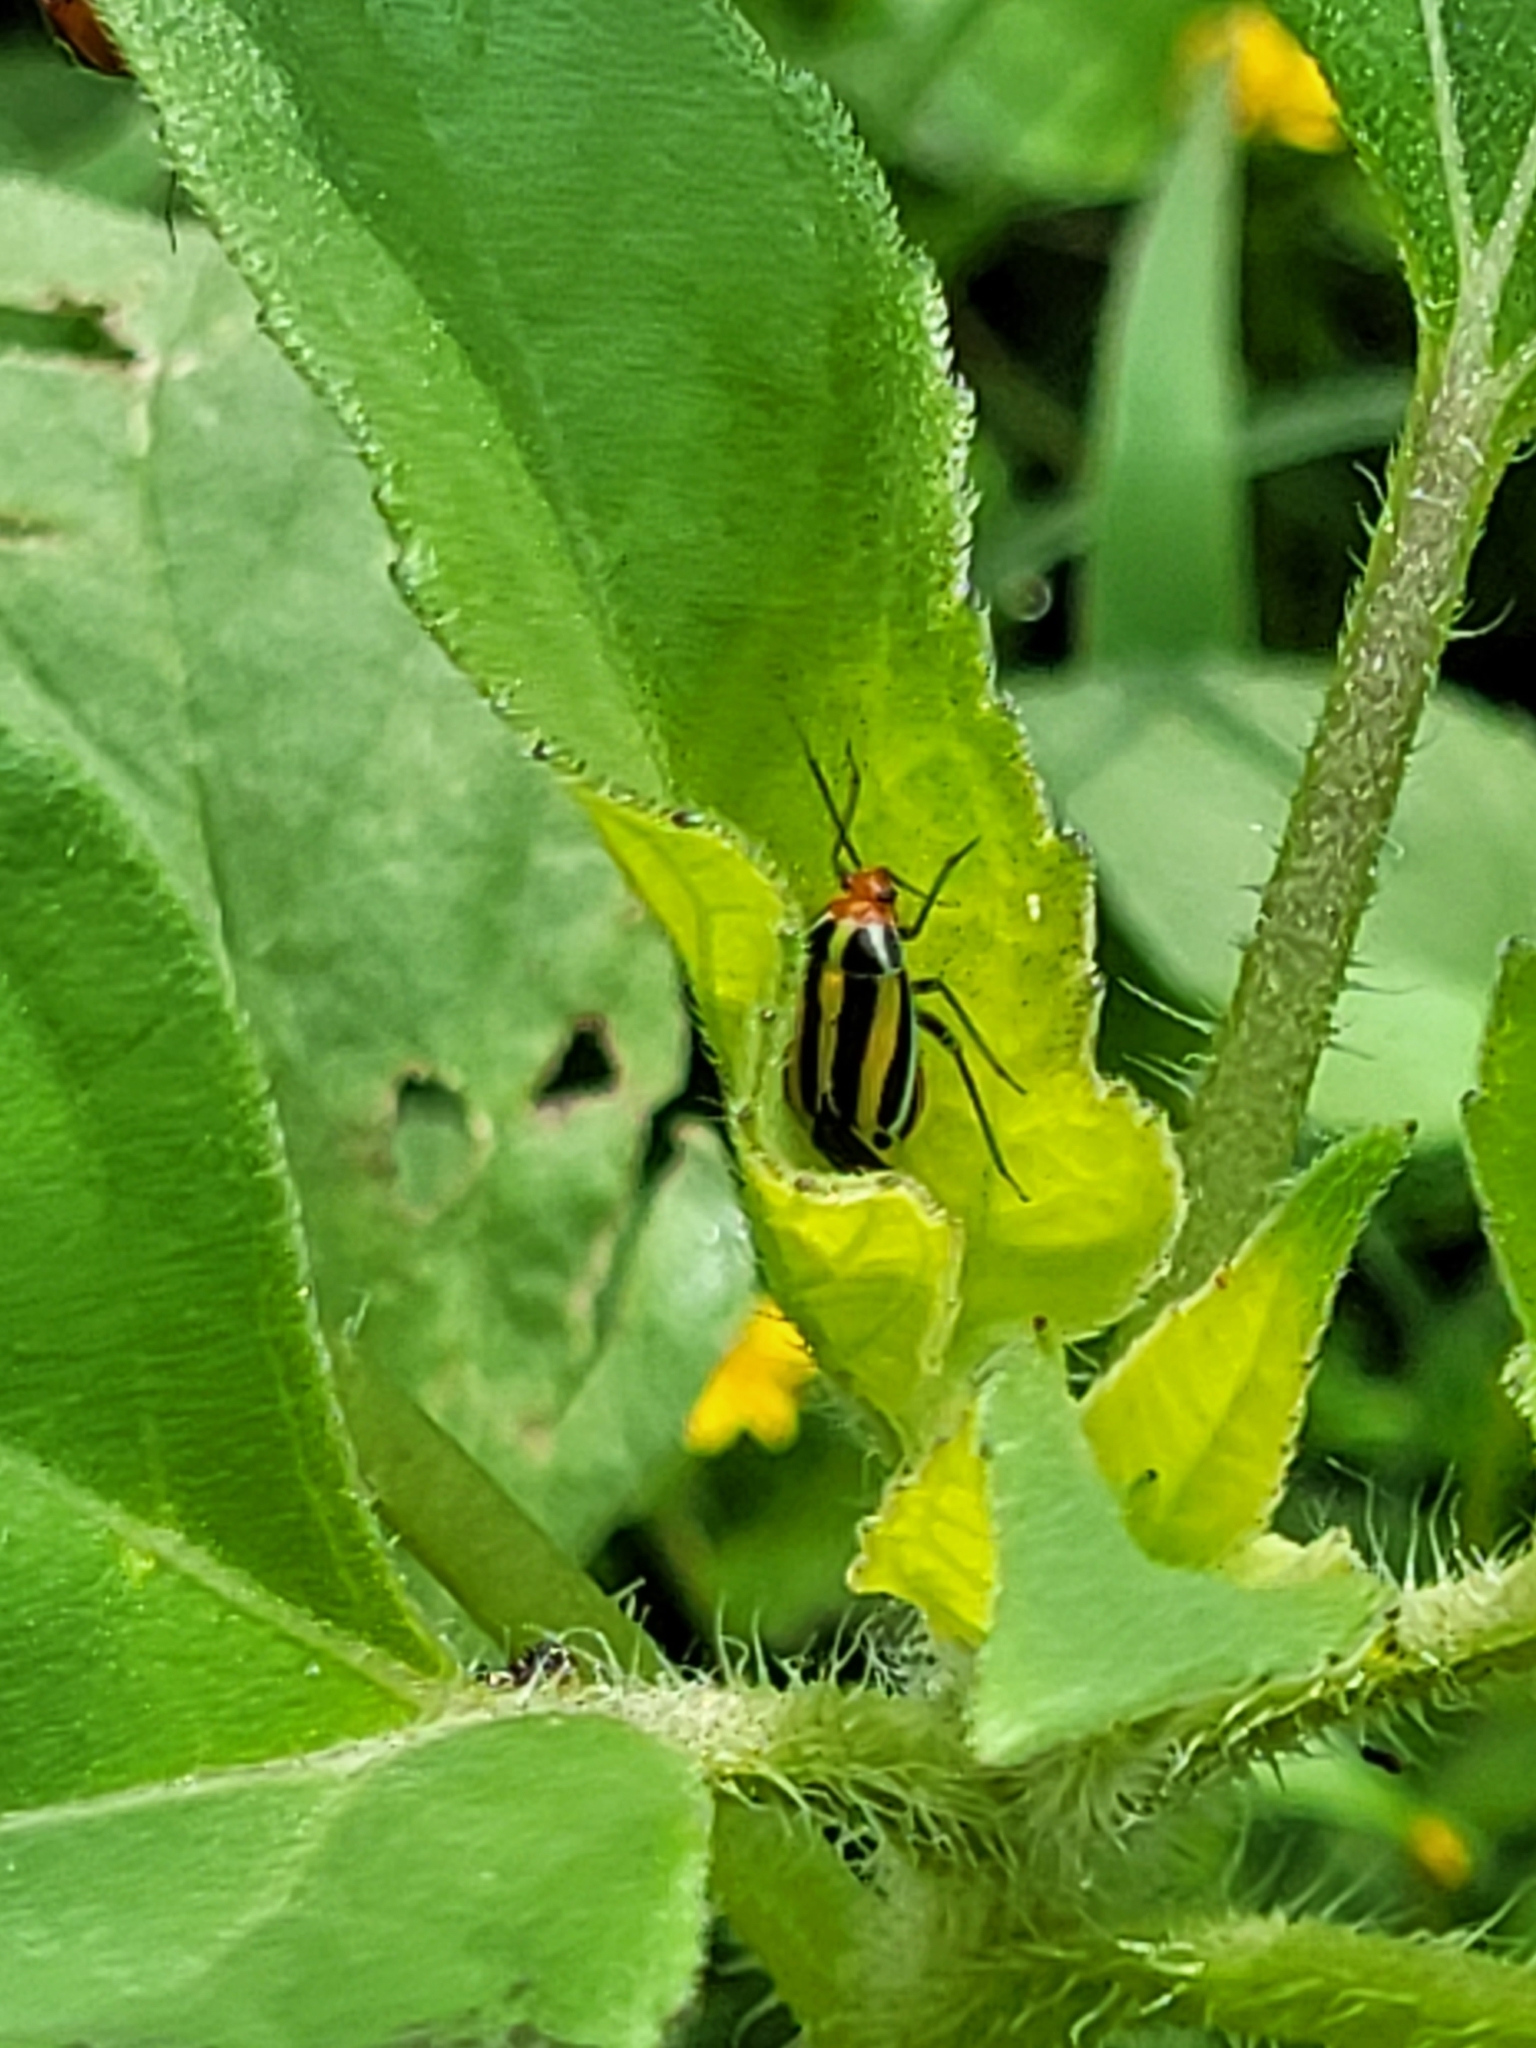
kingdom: Animalia
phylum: Arthropoda
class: Insecta
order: Hemiptera
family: Miridae
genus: Poecilocapsus
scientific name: Poecilocapsus lineatus
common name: Four-lined plant bug
